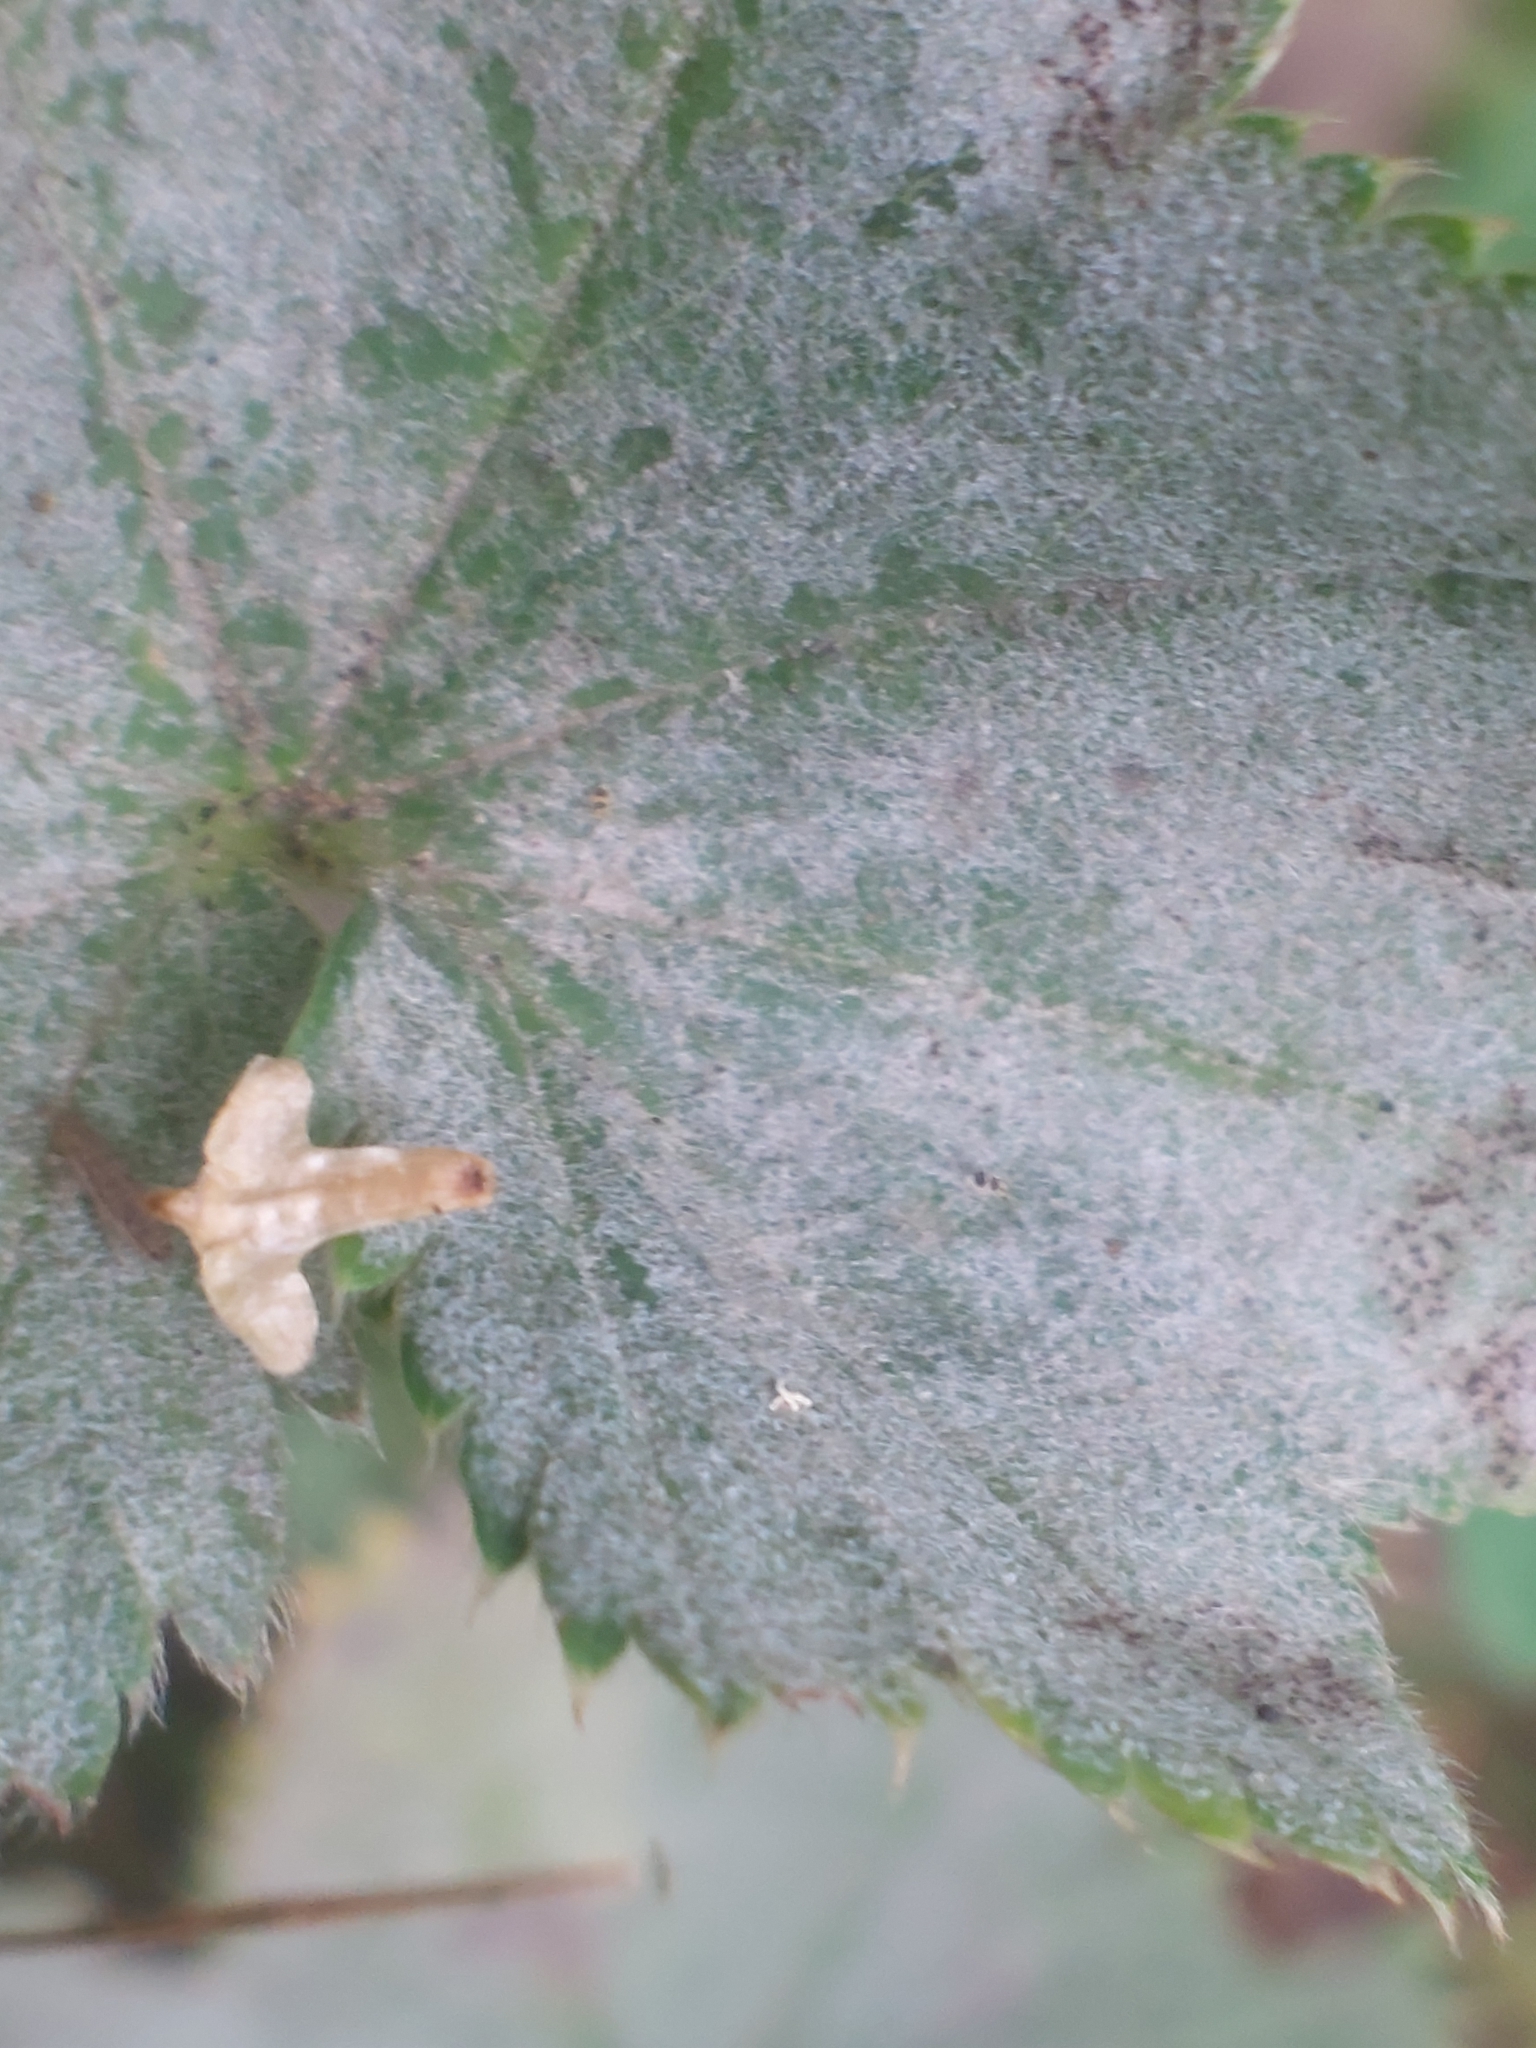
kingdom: Fungi
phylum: Ascomycota
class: Leotiomycetes
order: Helotiales
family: Erysiphaceae
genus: Podosphaera
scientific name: Podosphaera aphanis
